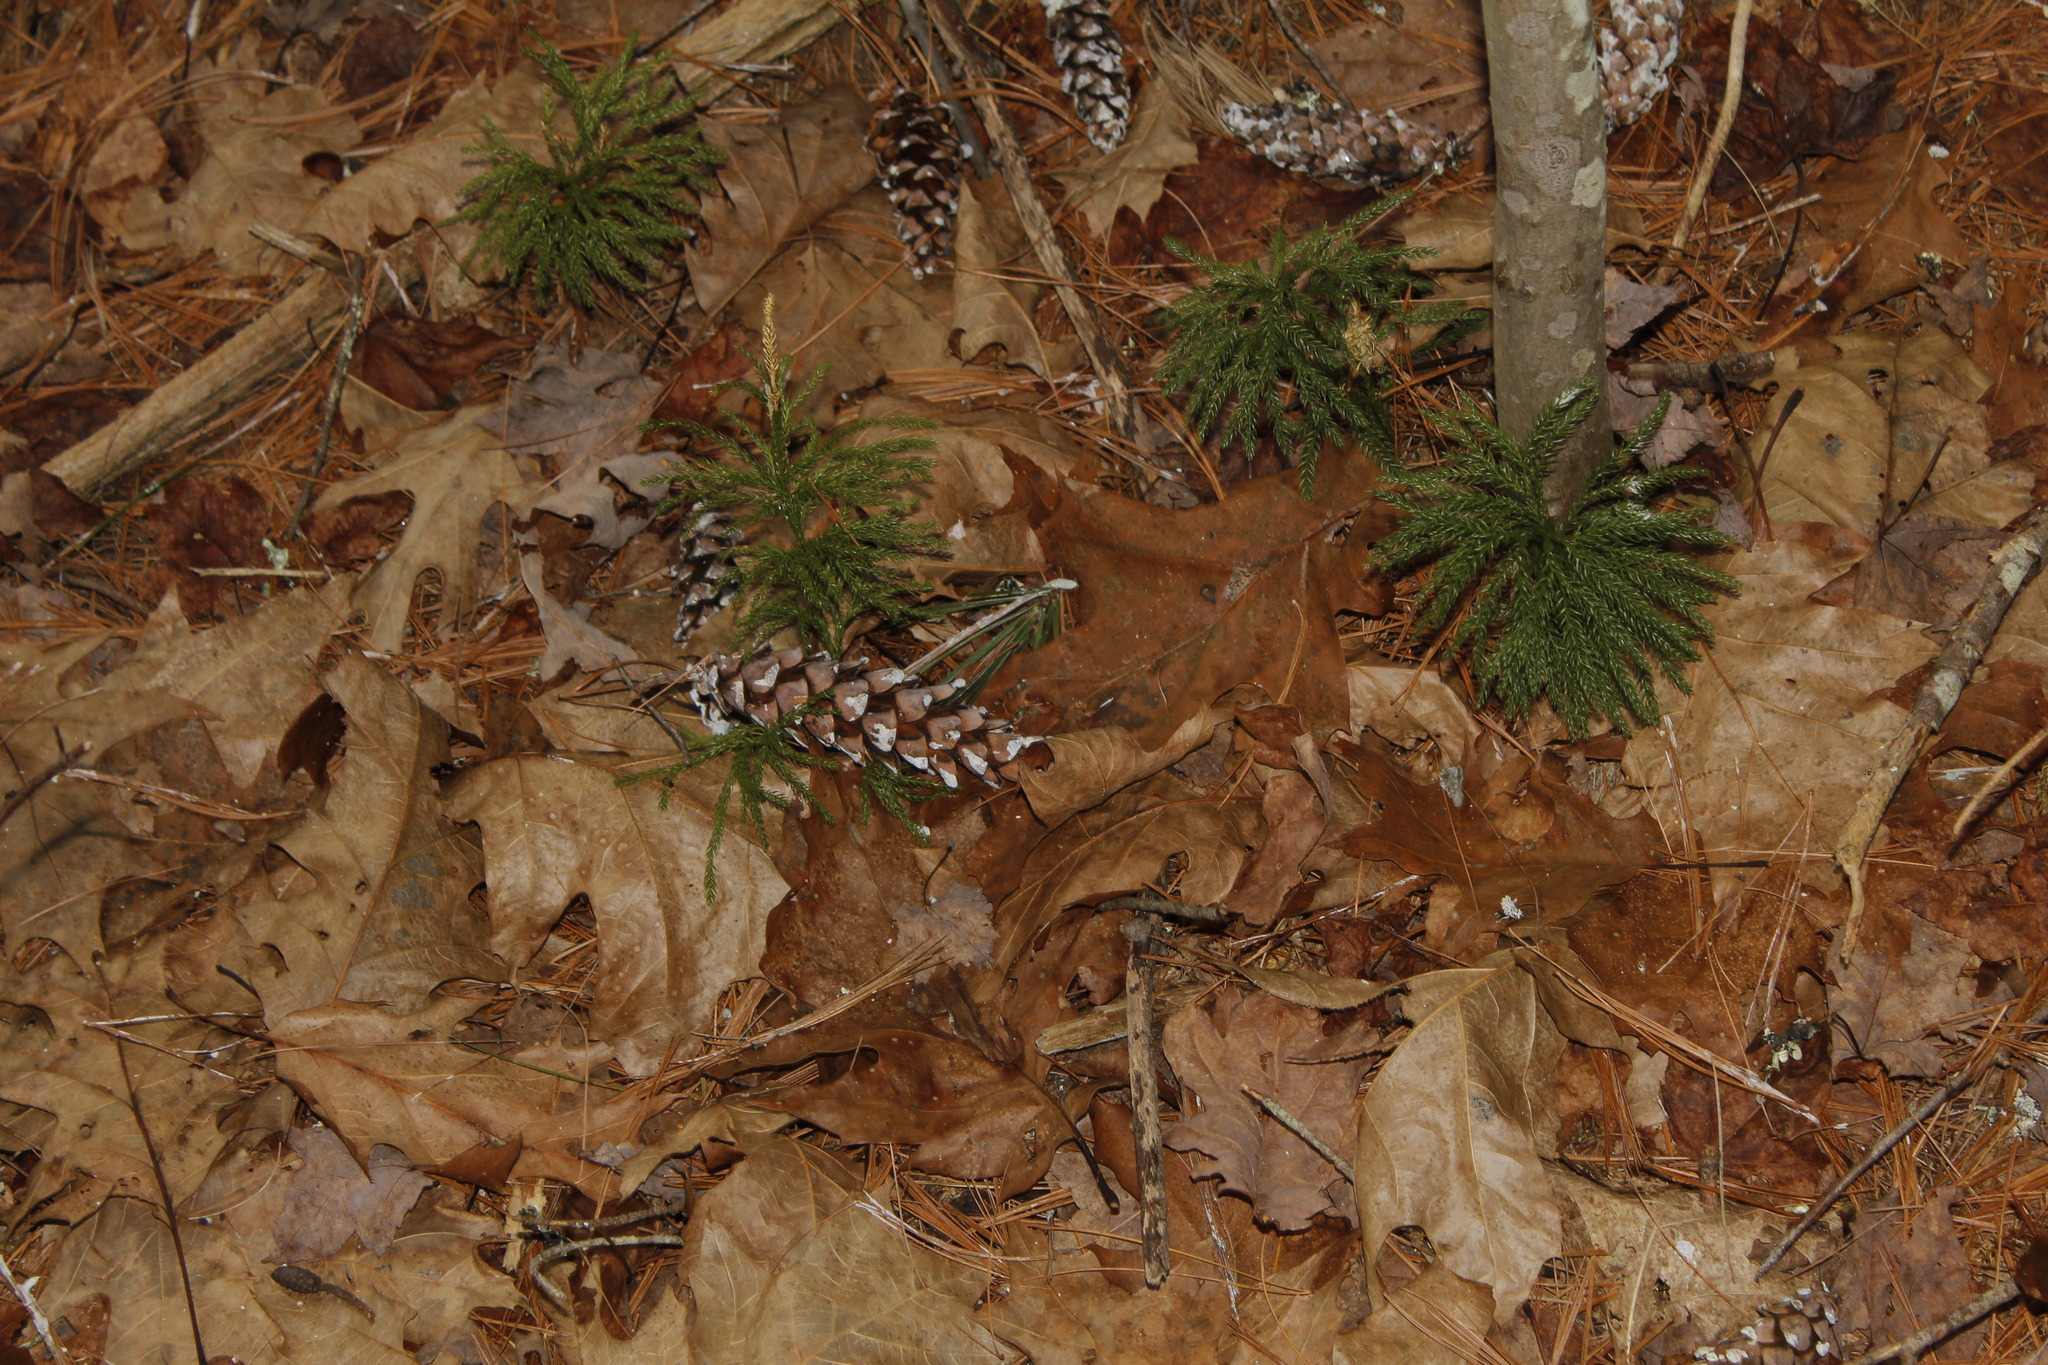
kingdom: Plantae
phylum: Tracheophyta
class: Lycopodiopsida
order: Lycopodiales
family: Lycopodiaceae
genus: Dendrolycopodium
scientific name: Dendrolycopodium obscurum
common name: Common ground-pine
